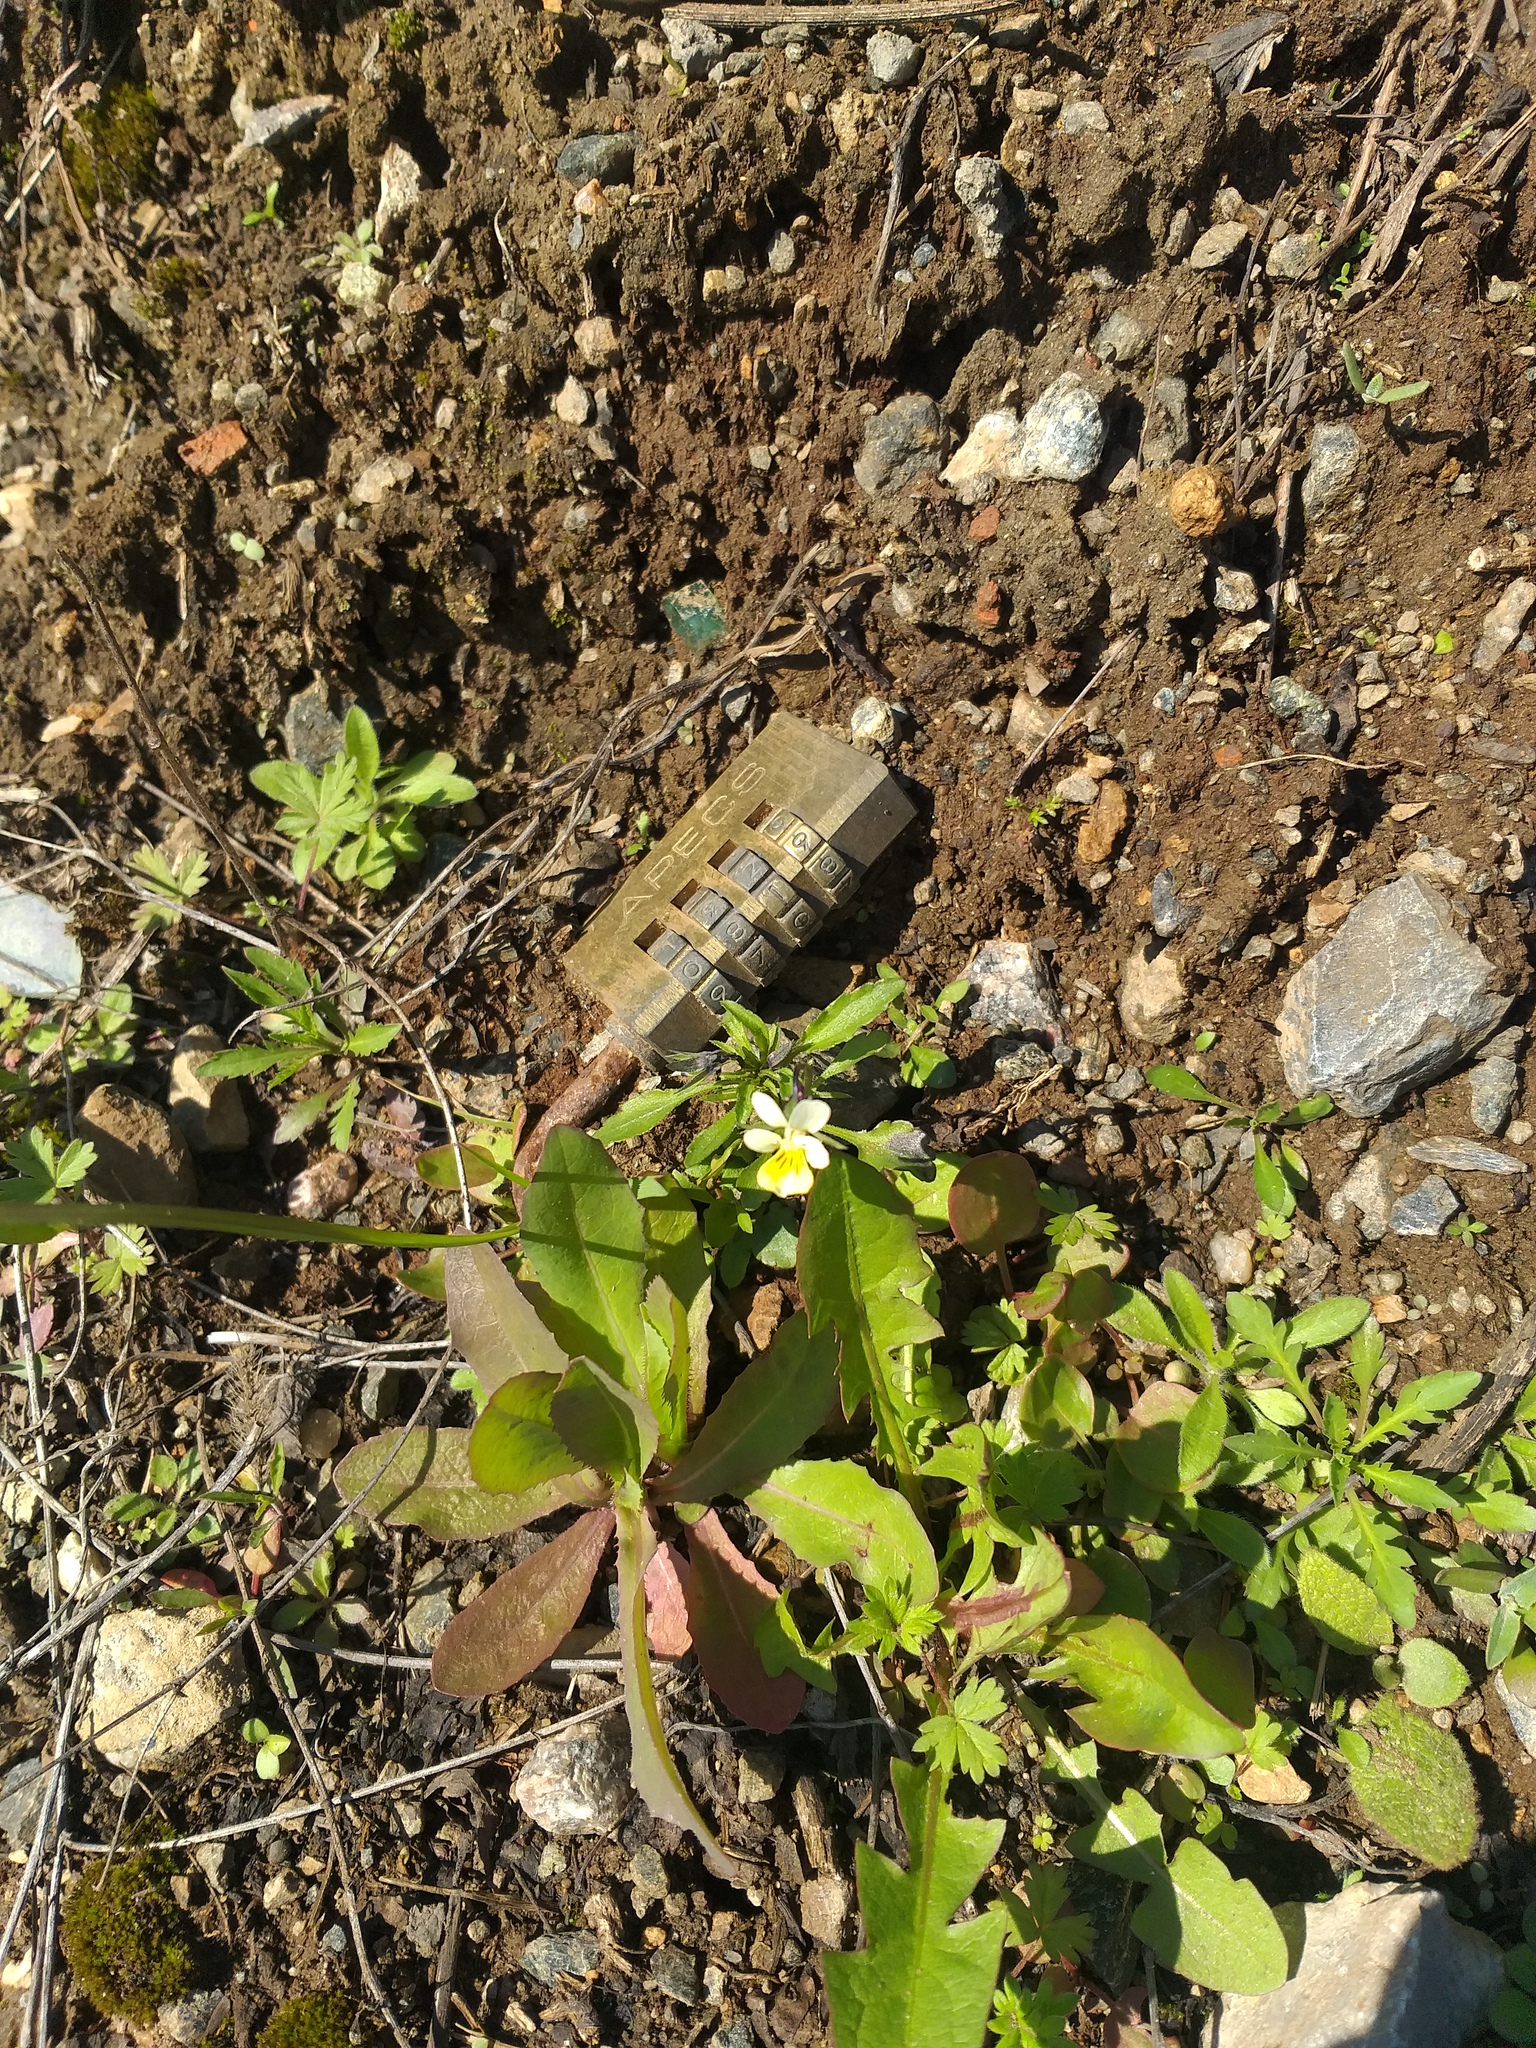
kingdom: Plantae
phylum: Tracheophyta
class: Magnoliopsida
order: Malpighiales
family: Violaceae
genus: Viola
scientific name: Viola arvensis
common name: Field pansy
